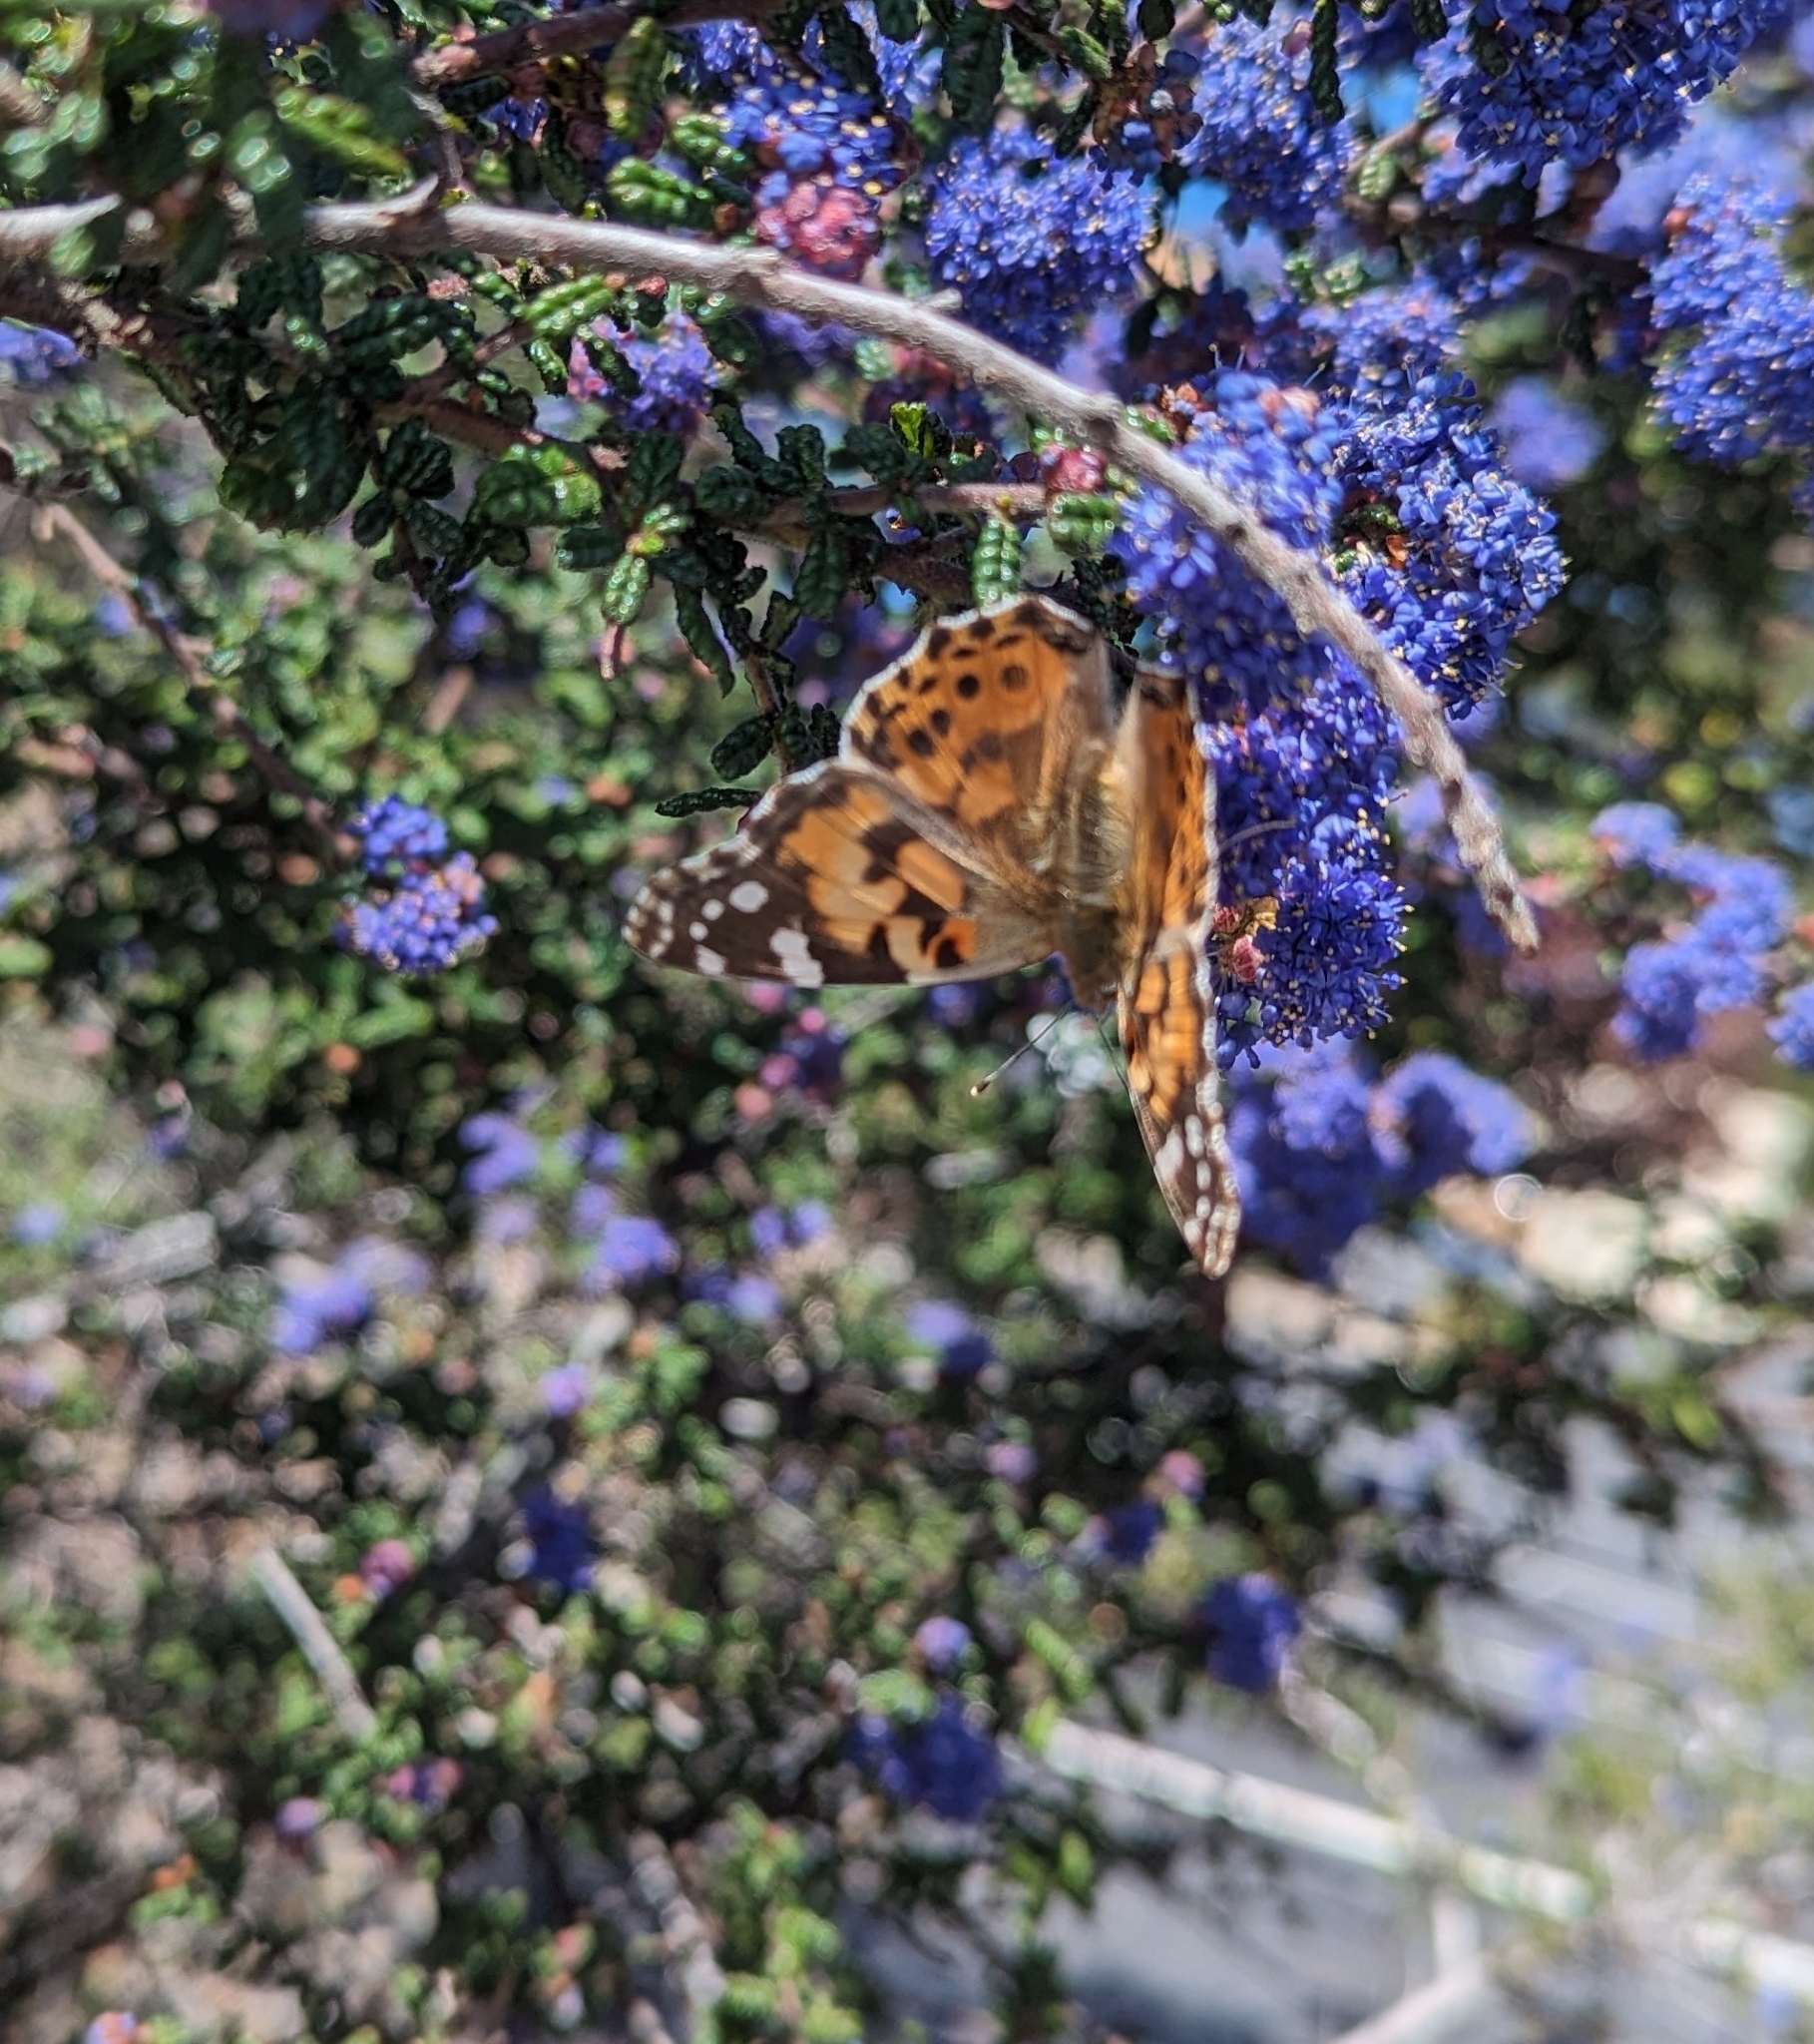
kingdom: Animalia
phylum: Arthropoda
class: Insecta
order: Lepidoptera
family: Nymphalidae
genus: Vanessa
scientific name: Vanessa cardui
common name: Painted lady
